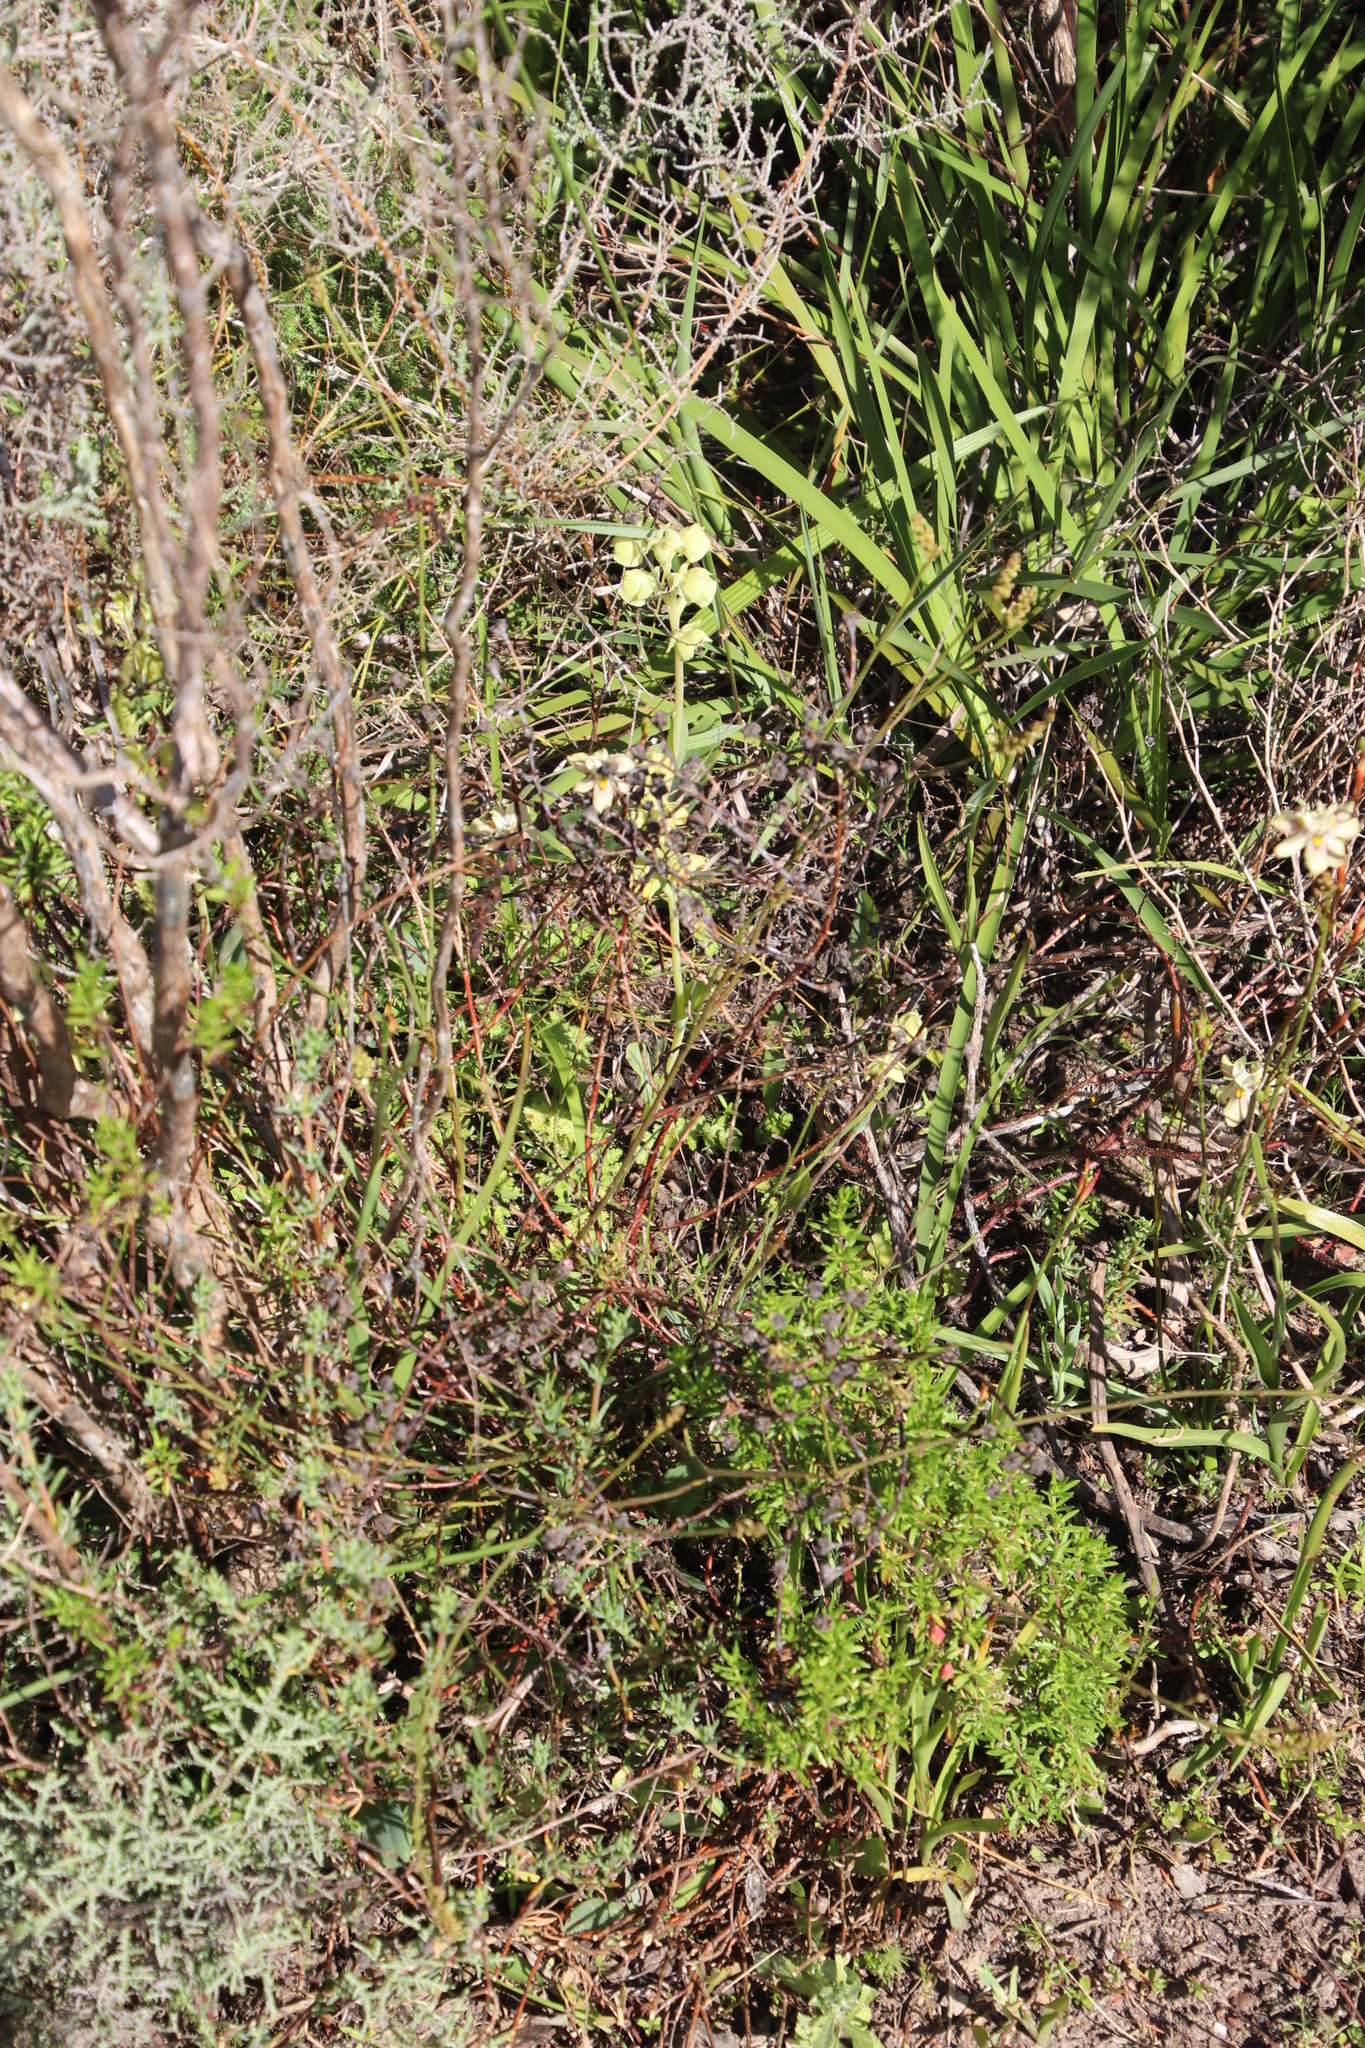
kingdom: Plantae
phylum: Tracheophyta
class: Liliopsida
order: Asparagales
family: Orchidaceae
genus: Pterygodium
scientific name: Pterygodium catholicum
